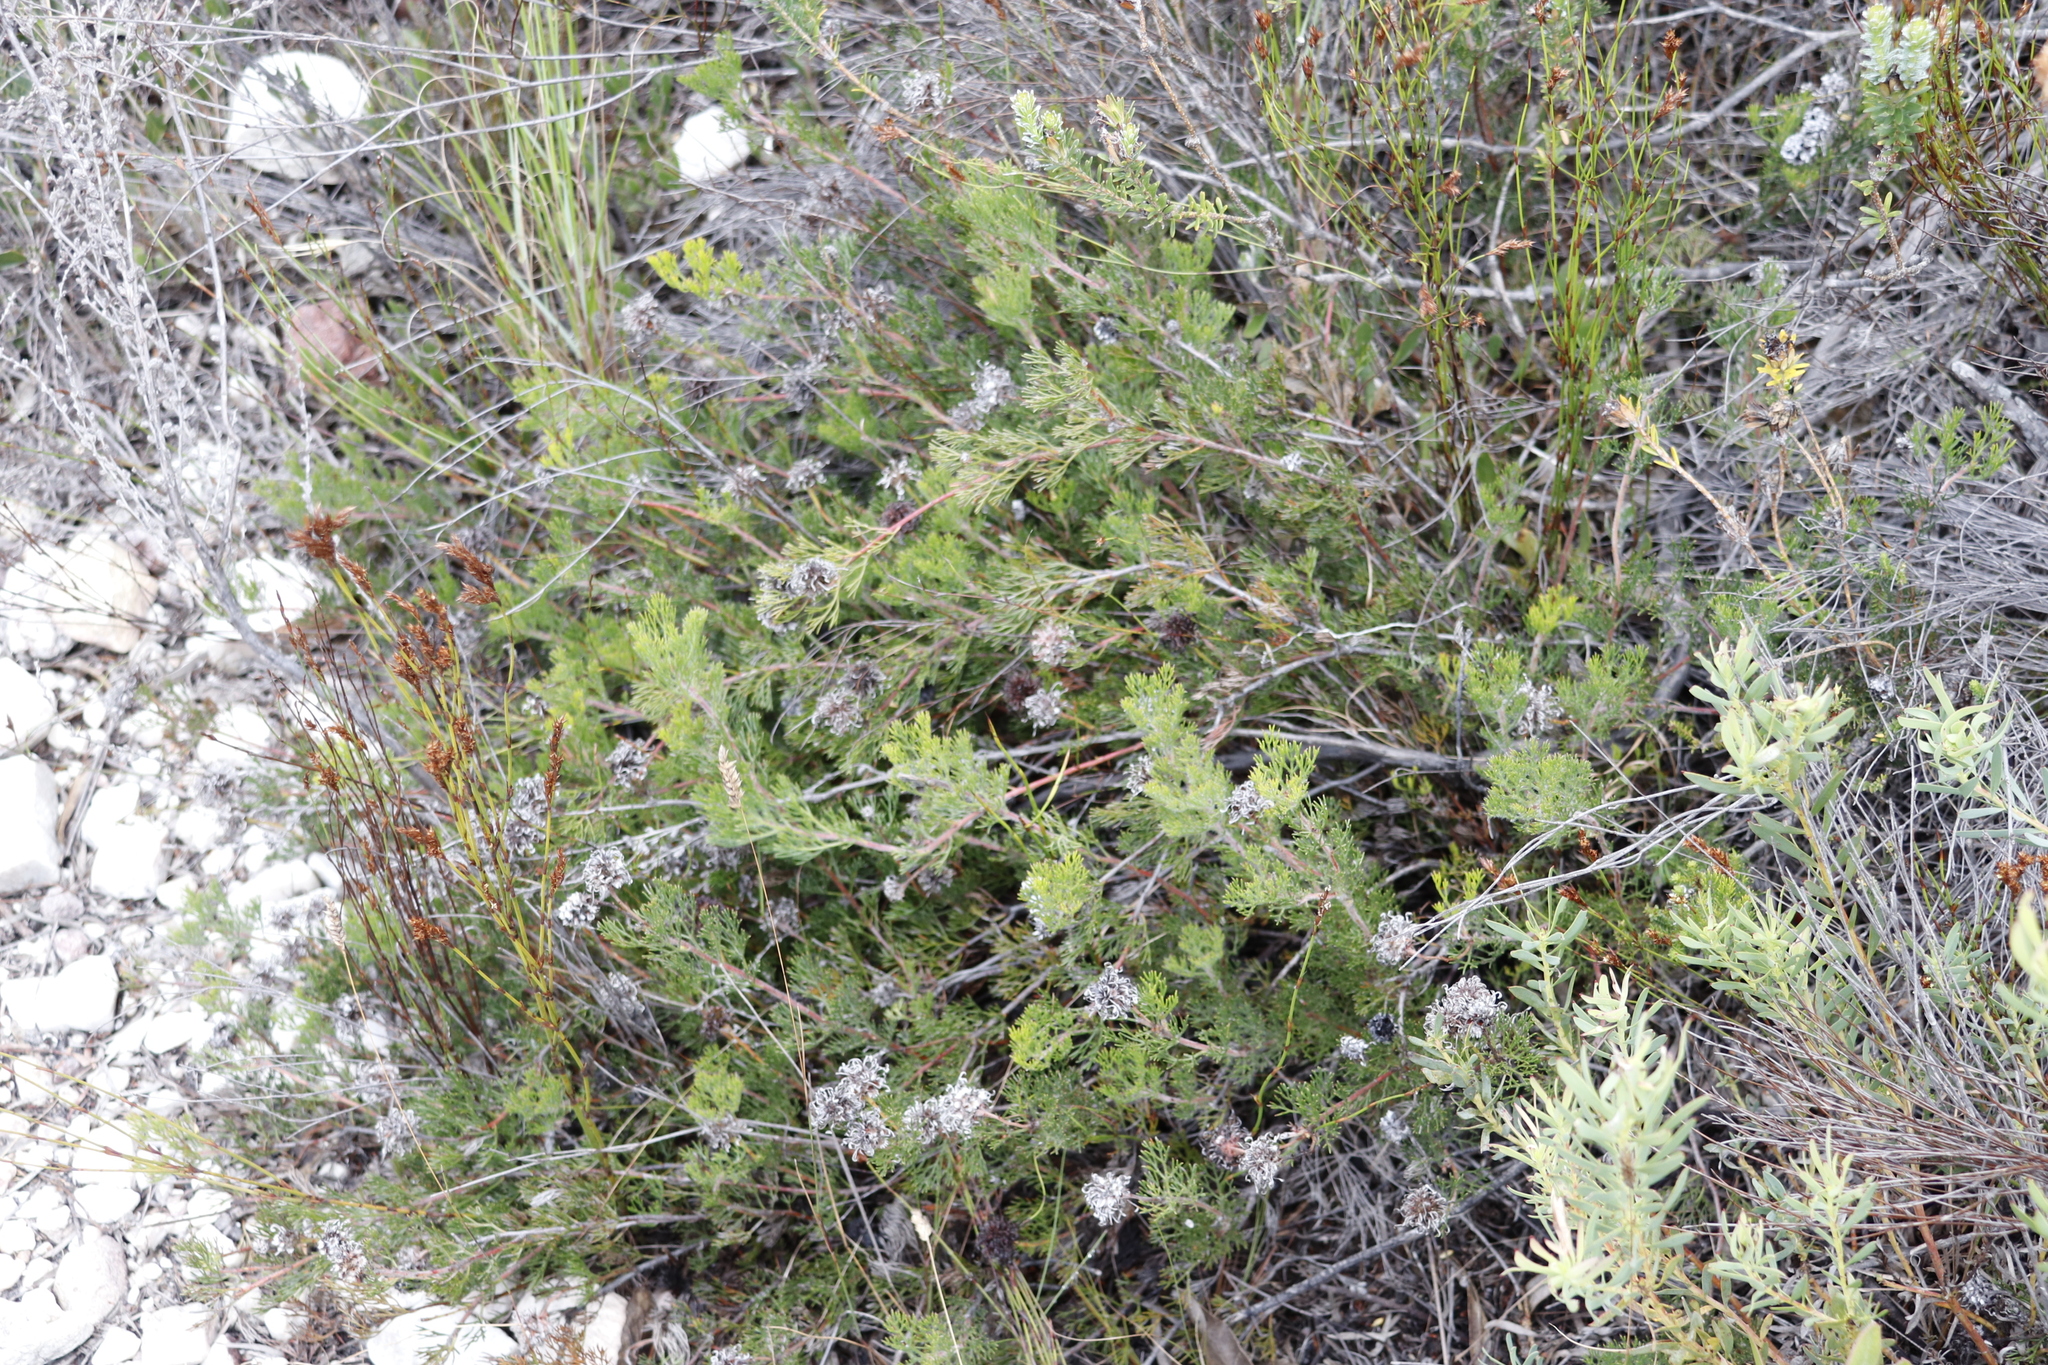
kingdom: Plantae
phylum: Tracheophyta
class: Magnoliopsida
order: Proteales
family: Proteaceae
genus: Serruria
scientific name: Serruria
